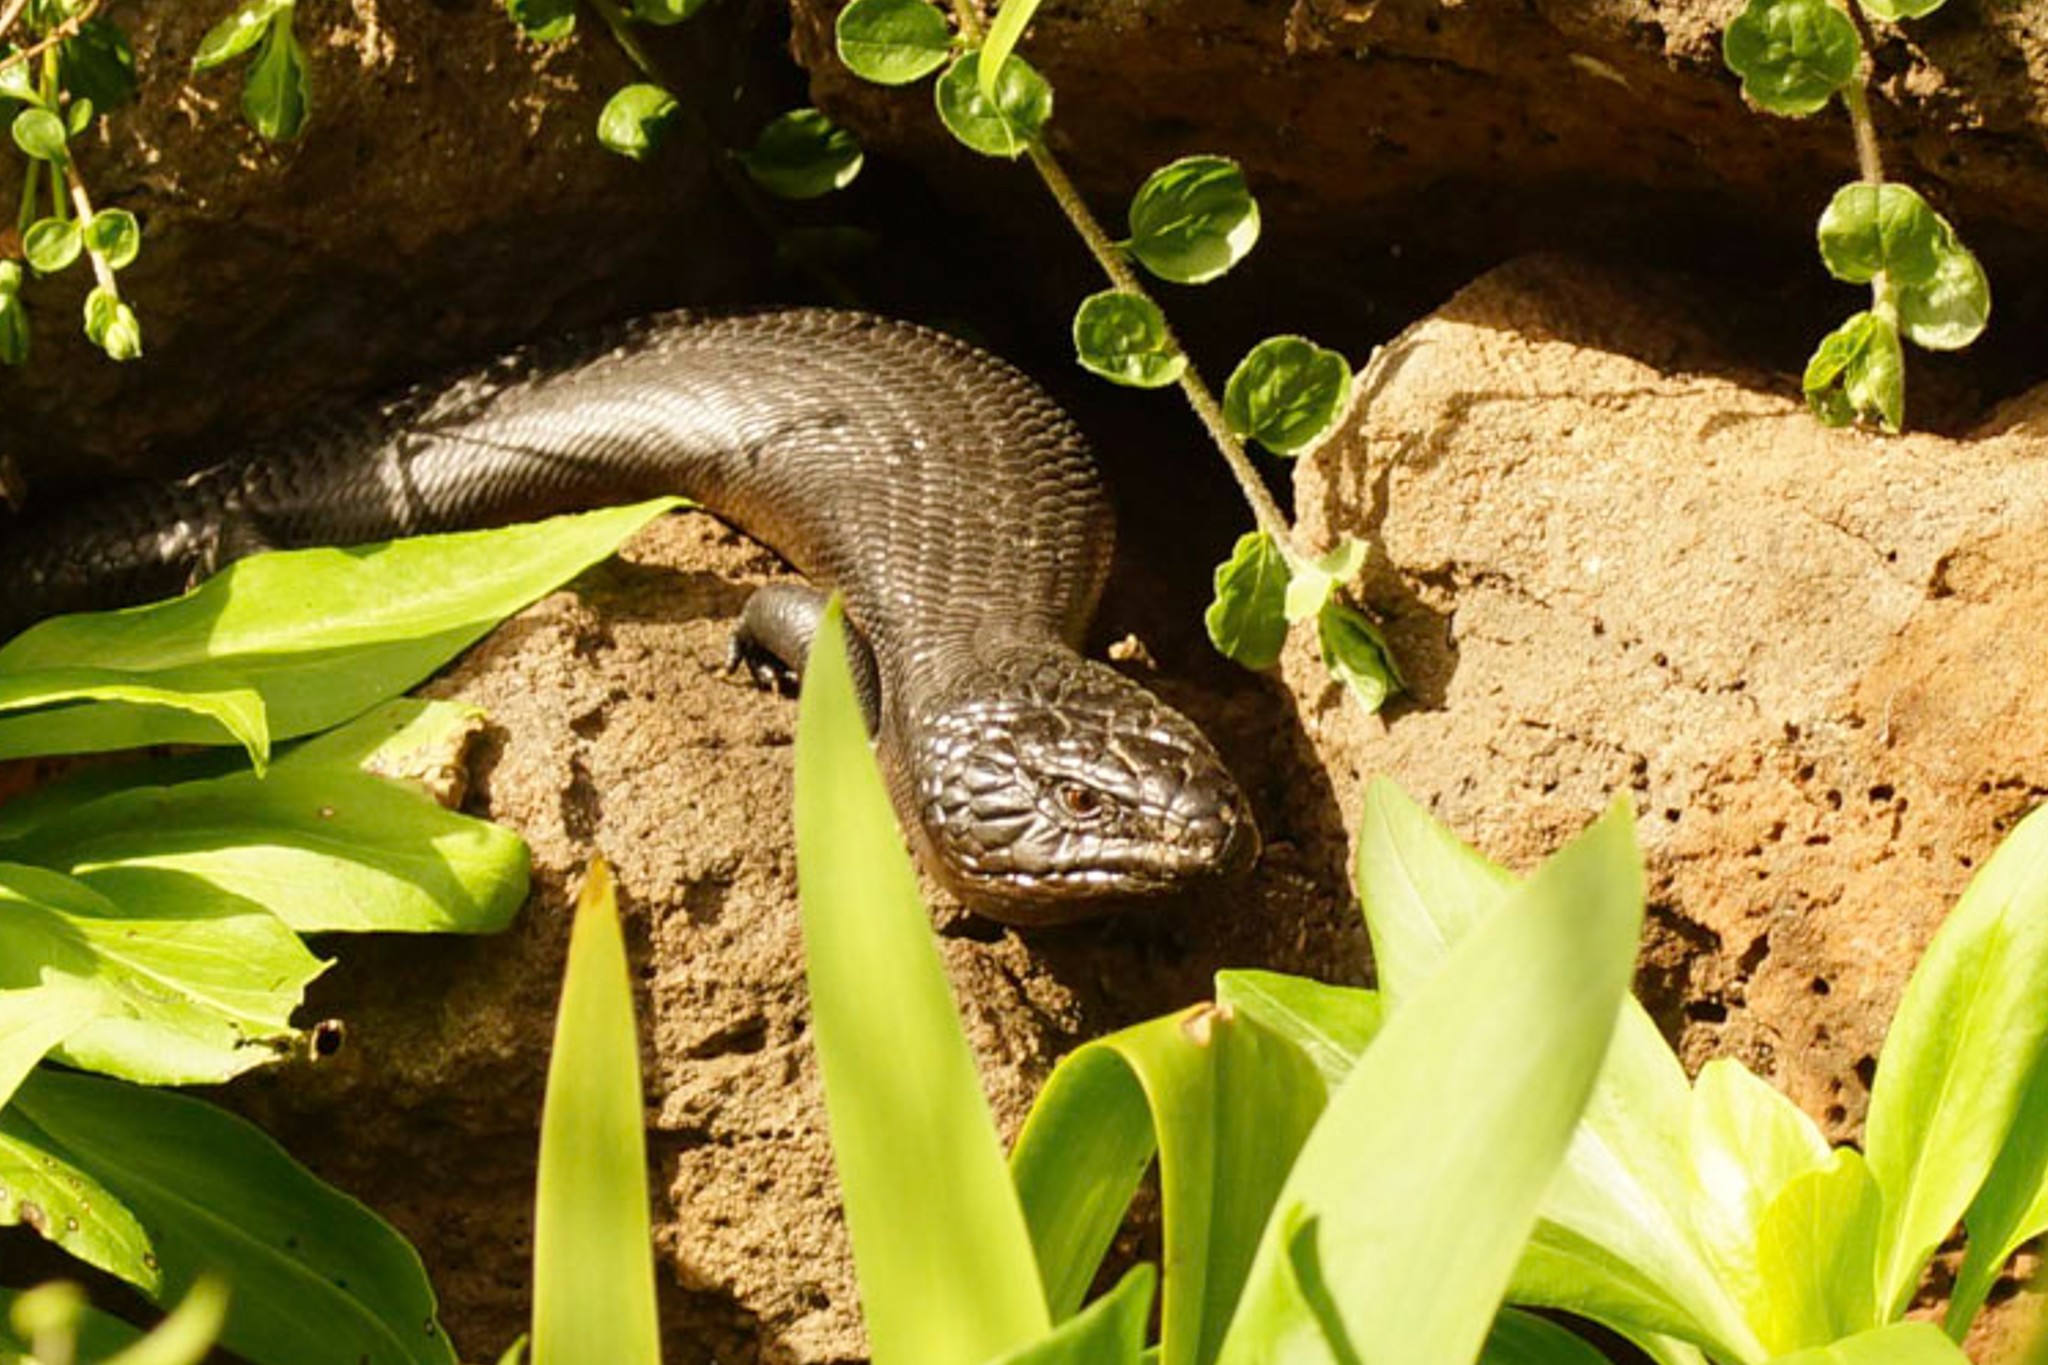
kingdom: Animalia
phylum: Chordata
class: Squamata
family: Scincidae
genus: Tiliqua
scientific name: Tiliqua scincoides
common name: Common bluetongue
